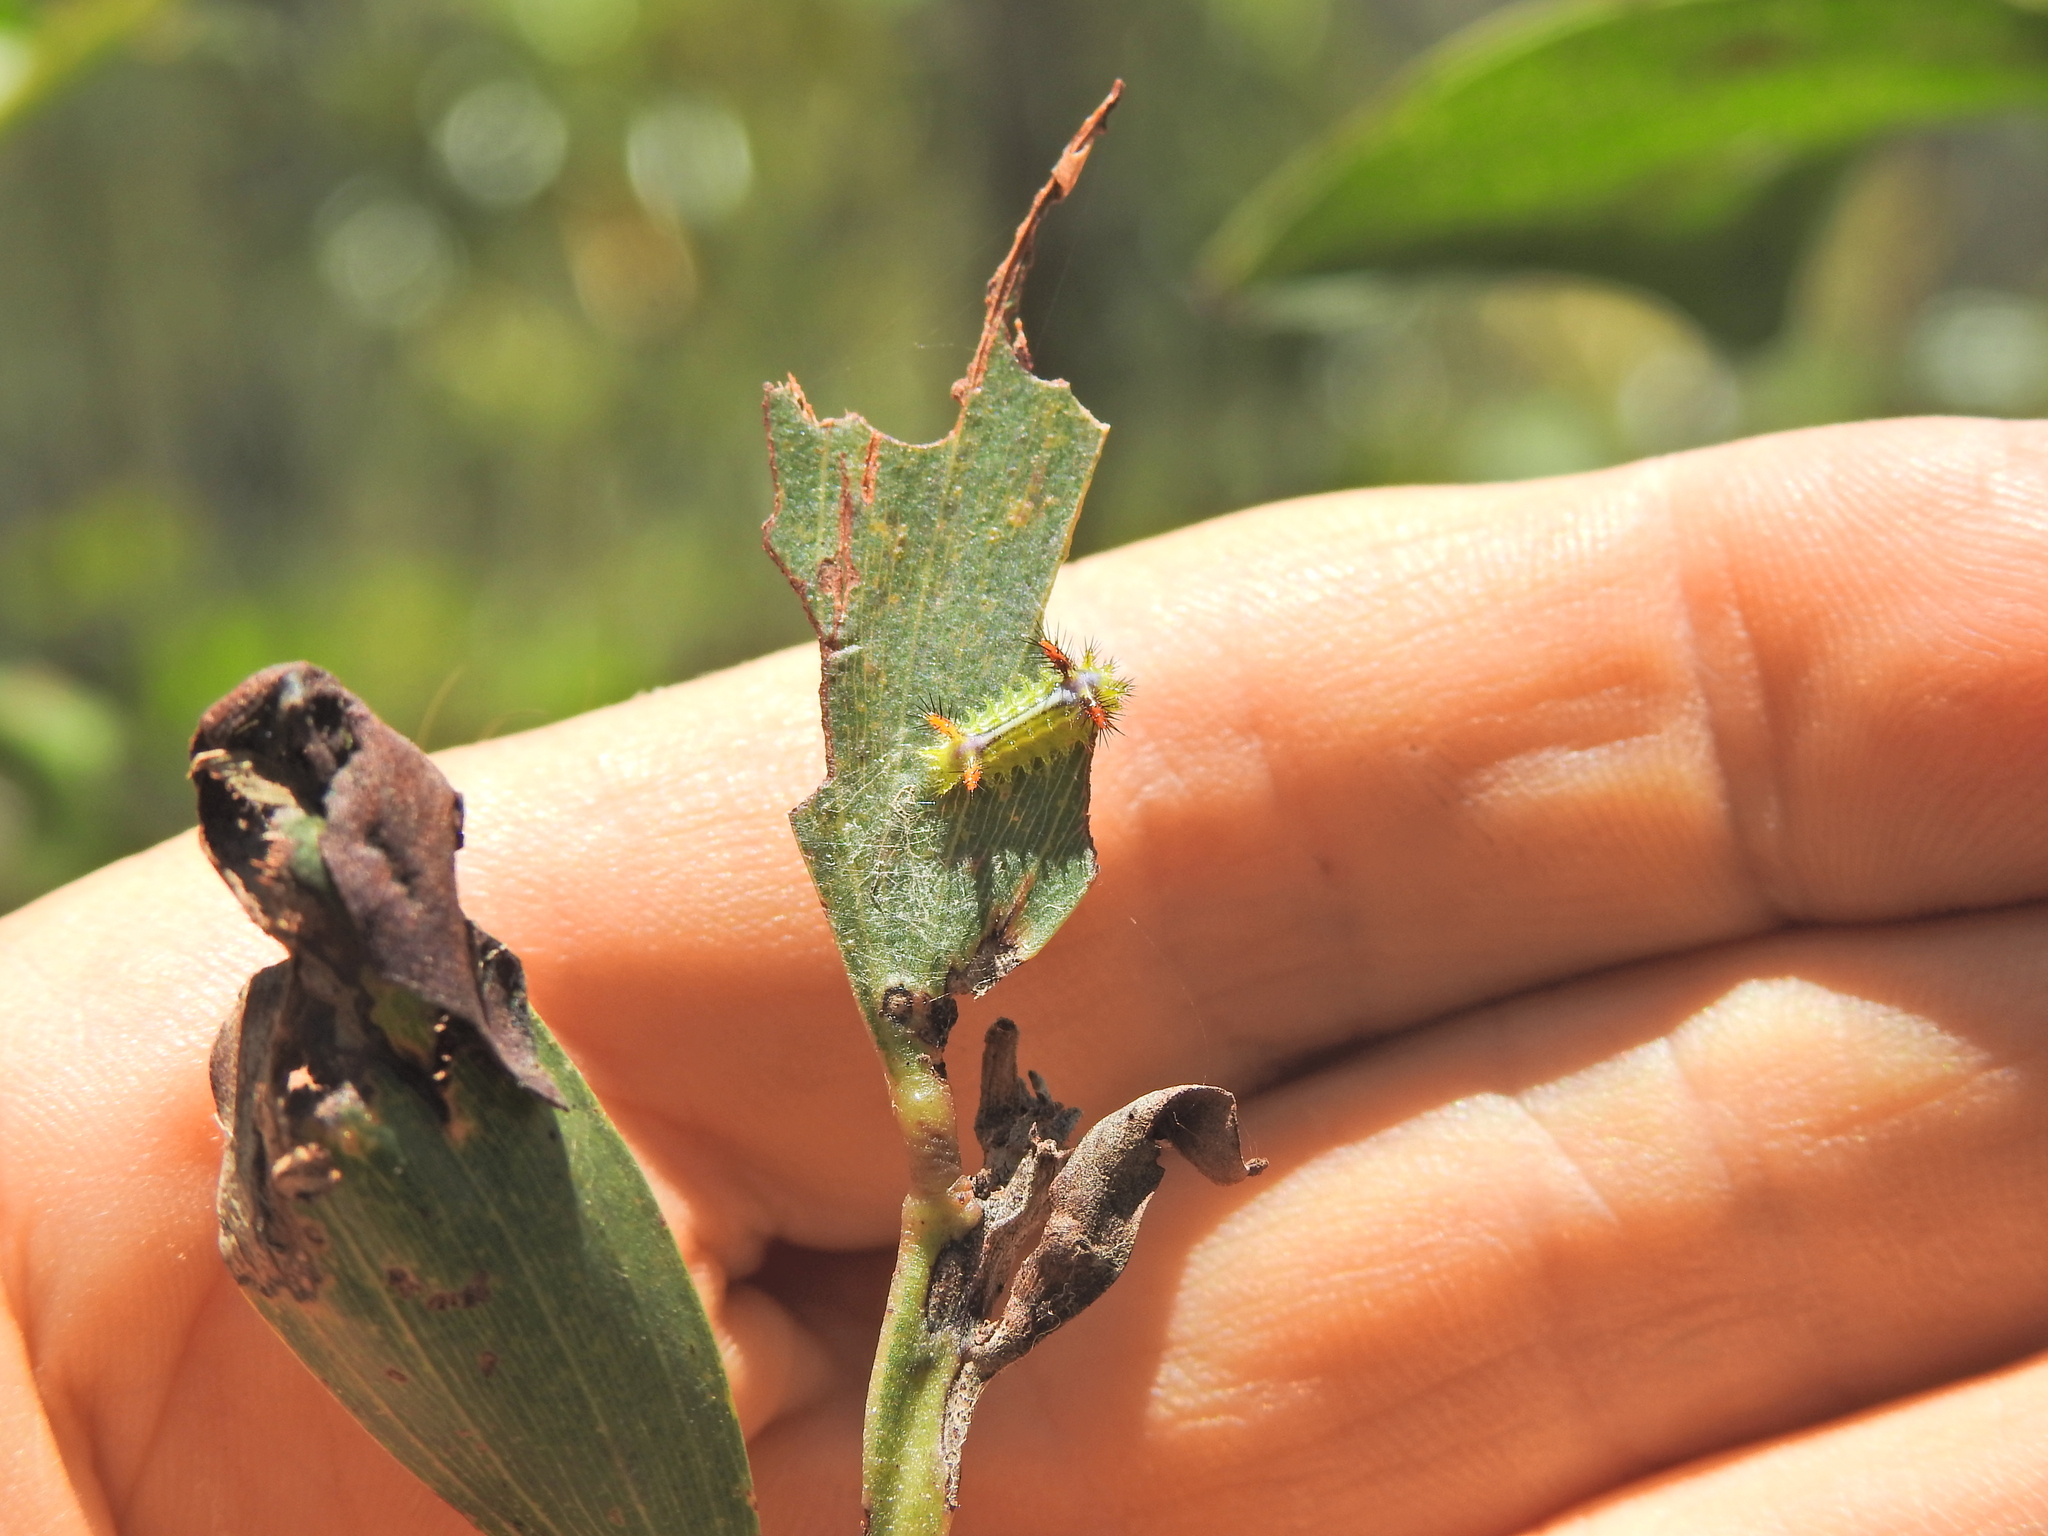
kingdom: Animalia
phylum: Arthropoda
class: Insecta
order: Lepidoptera
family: Limacodidae
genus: Anaxidia
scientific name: Anaxidia lozogramma
